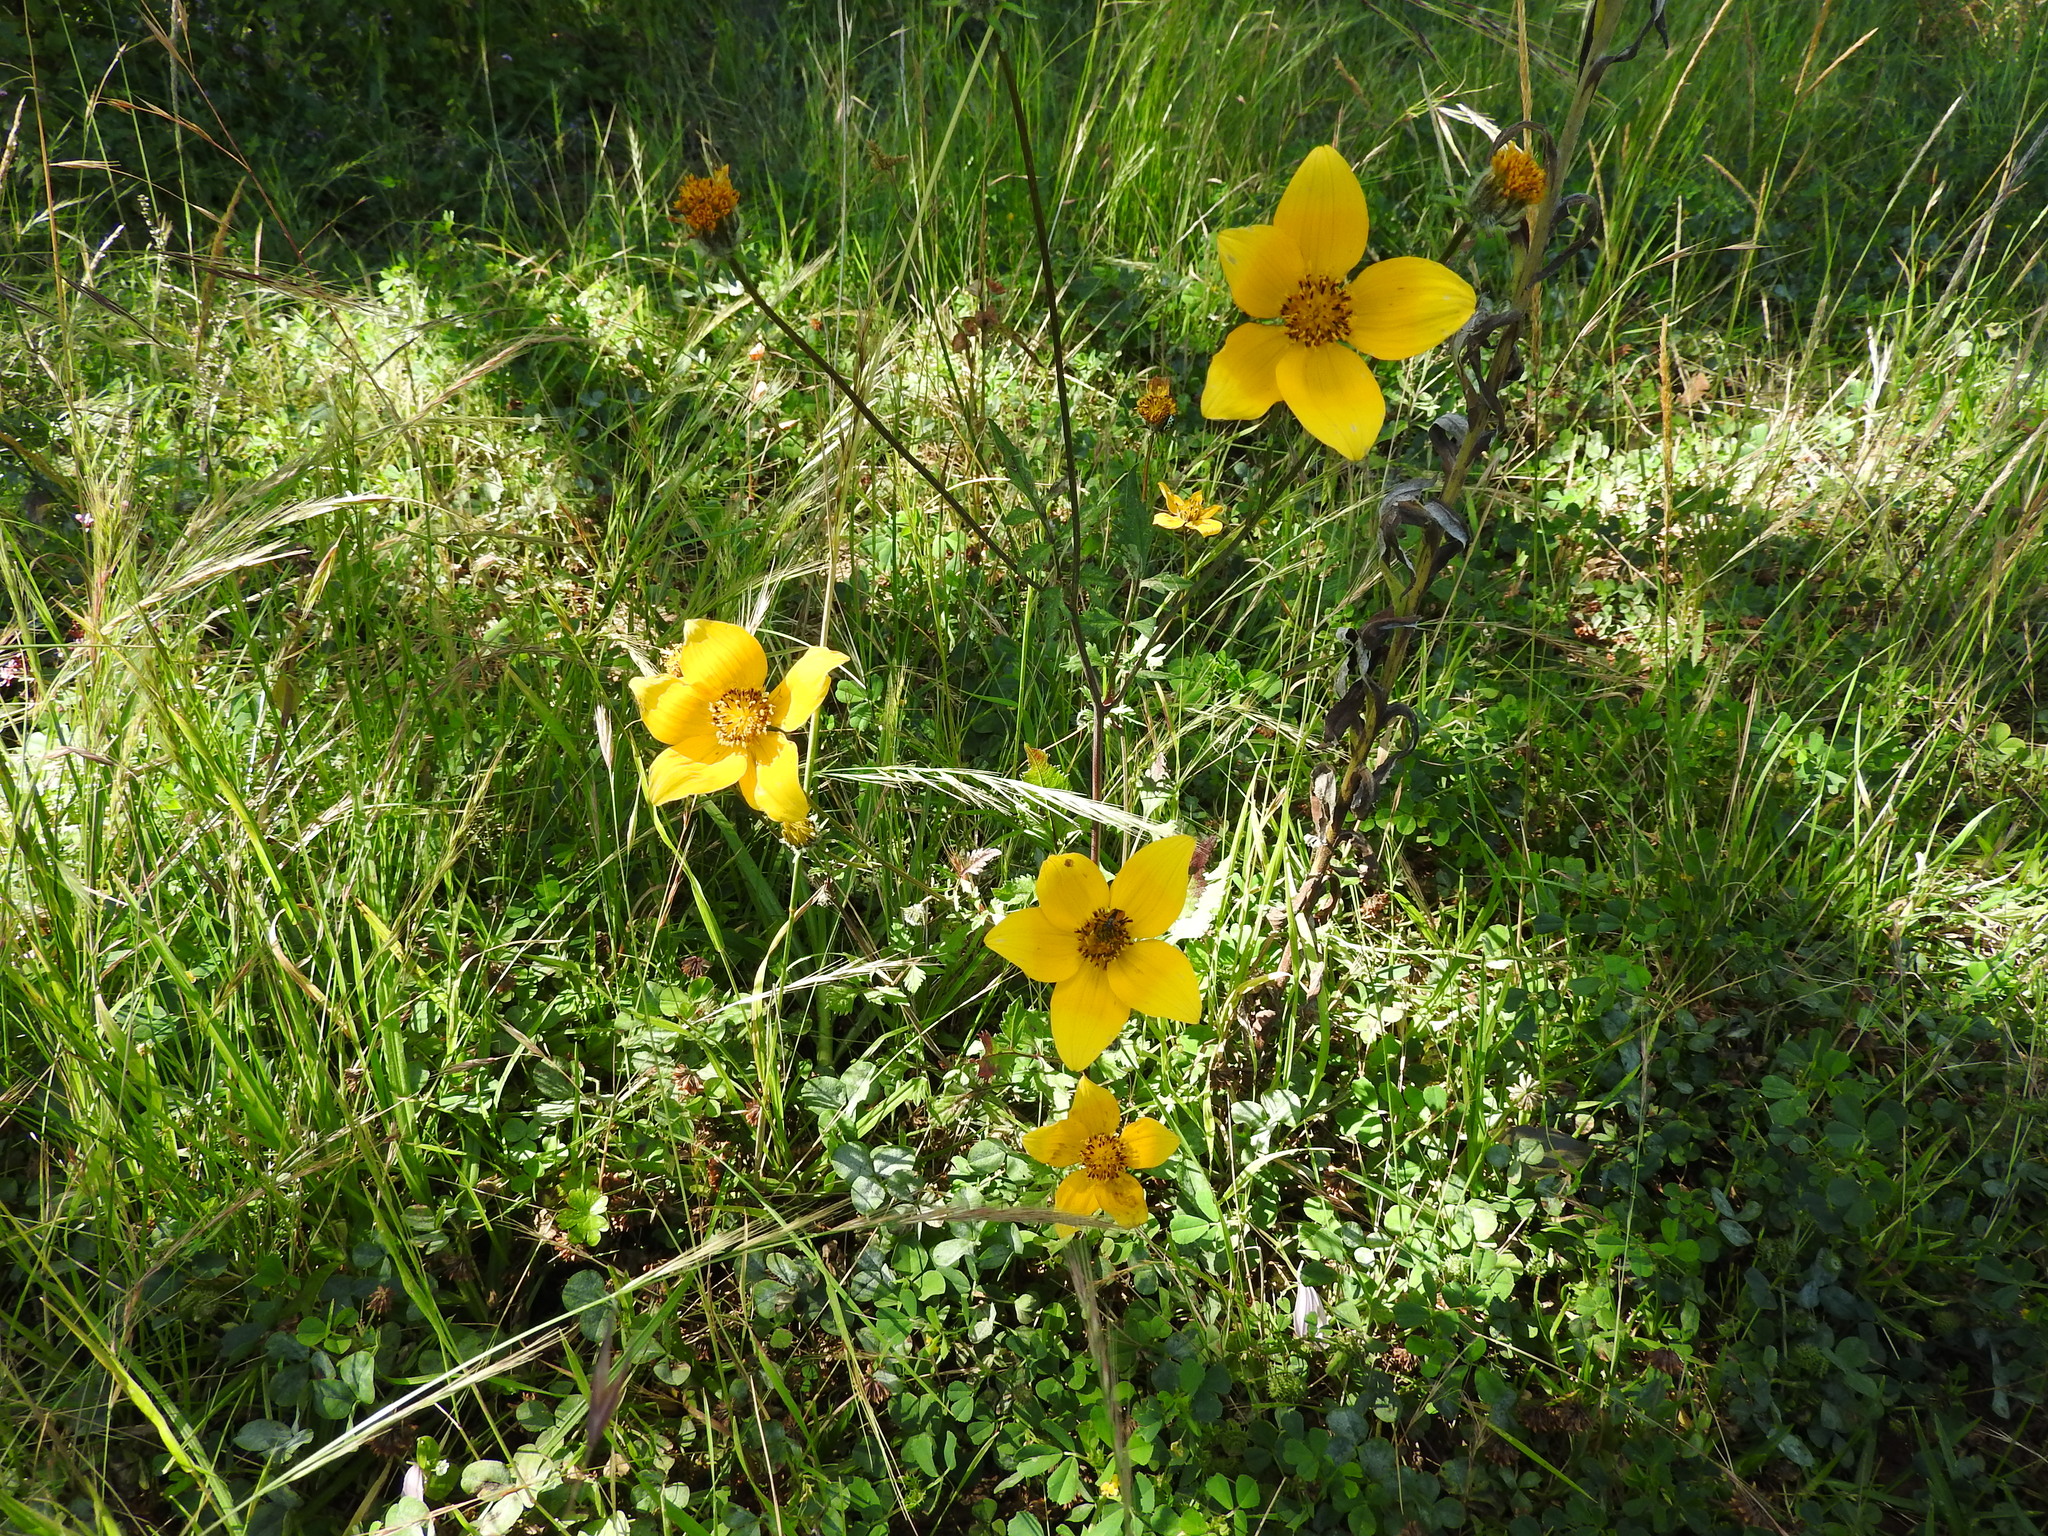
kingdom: Plantae
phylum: Tracheophyta
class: Magnoliopsida
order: Asterales
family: Asteraceae
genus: Bidens
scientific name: Bidens triplinervia
